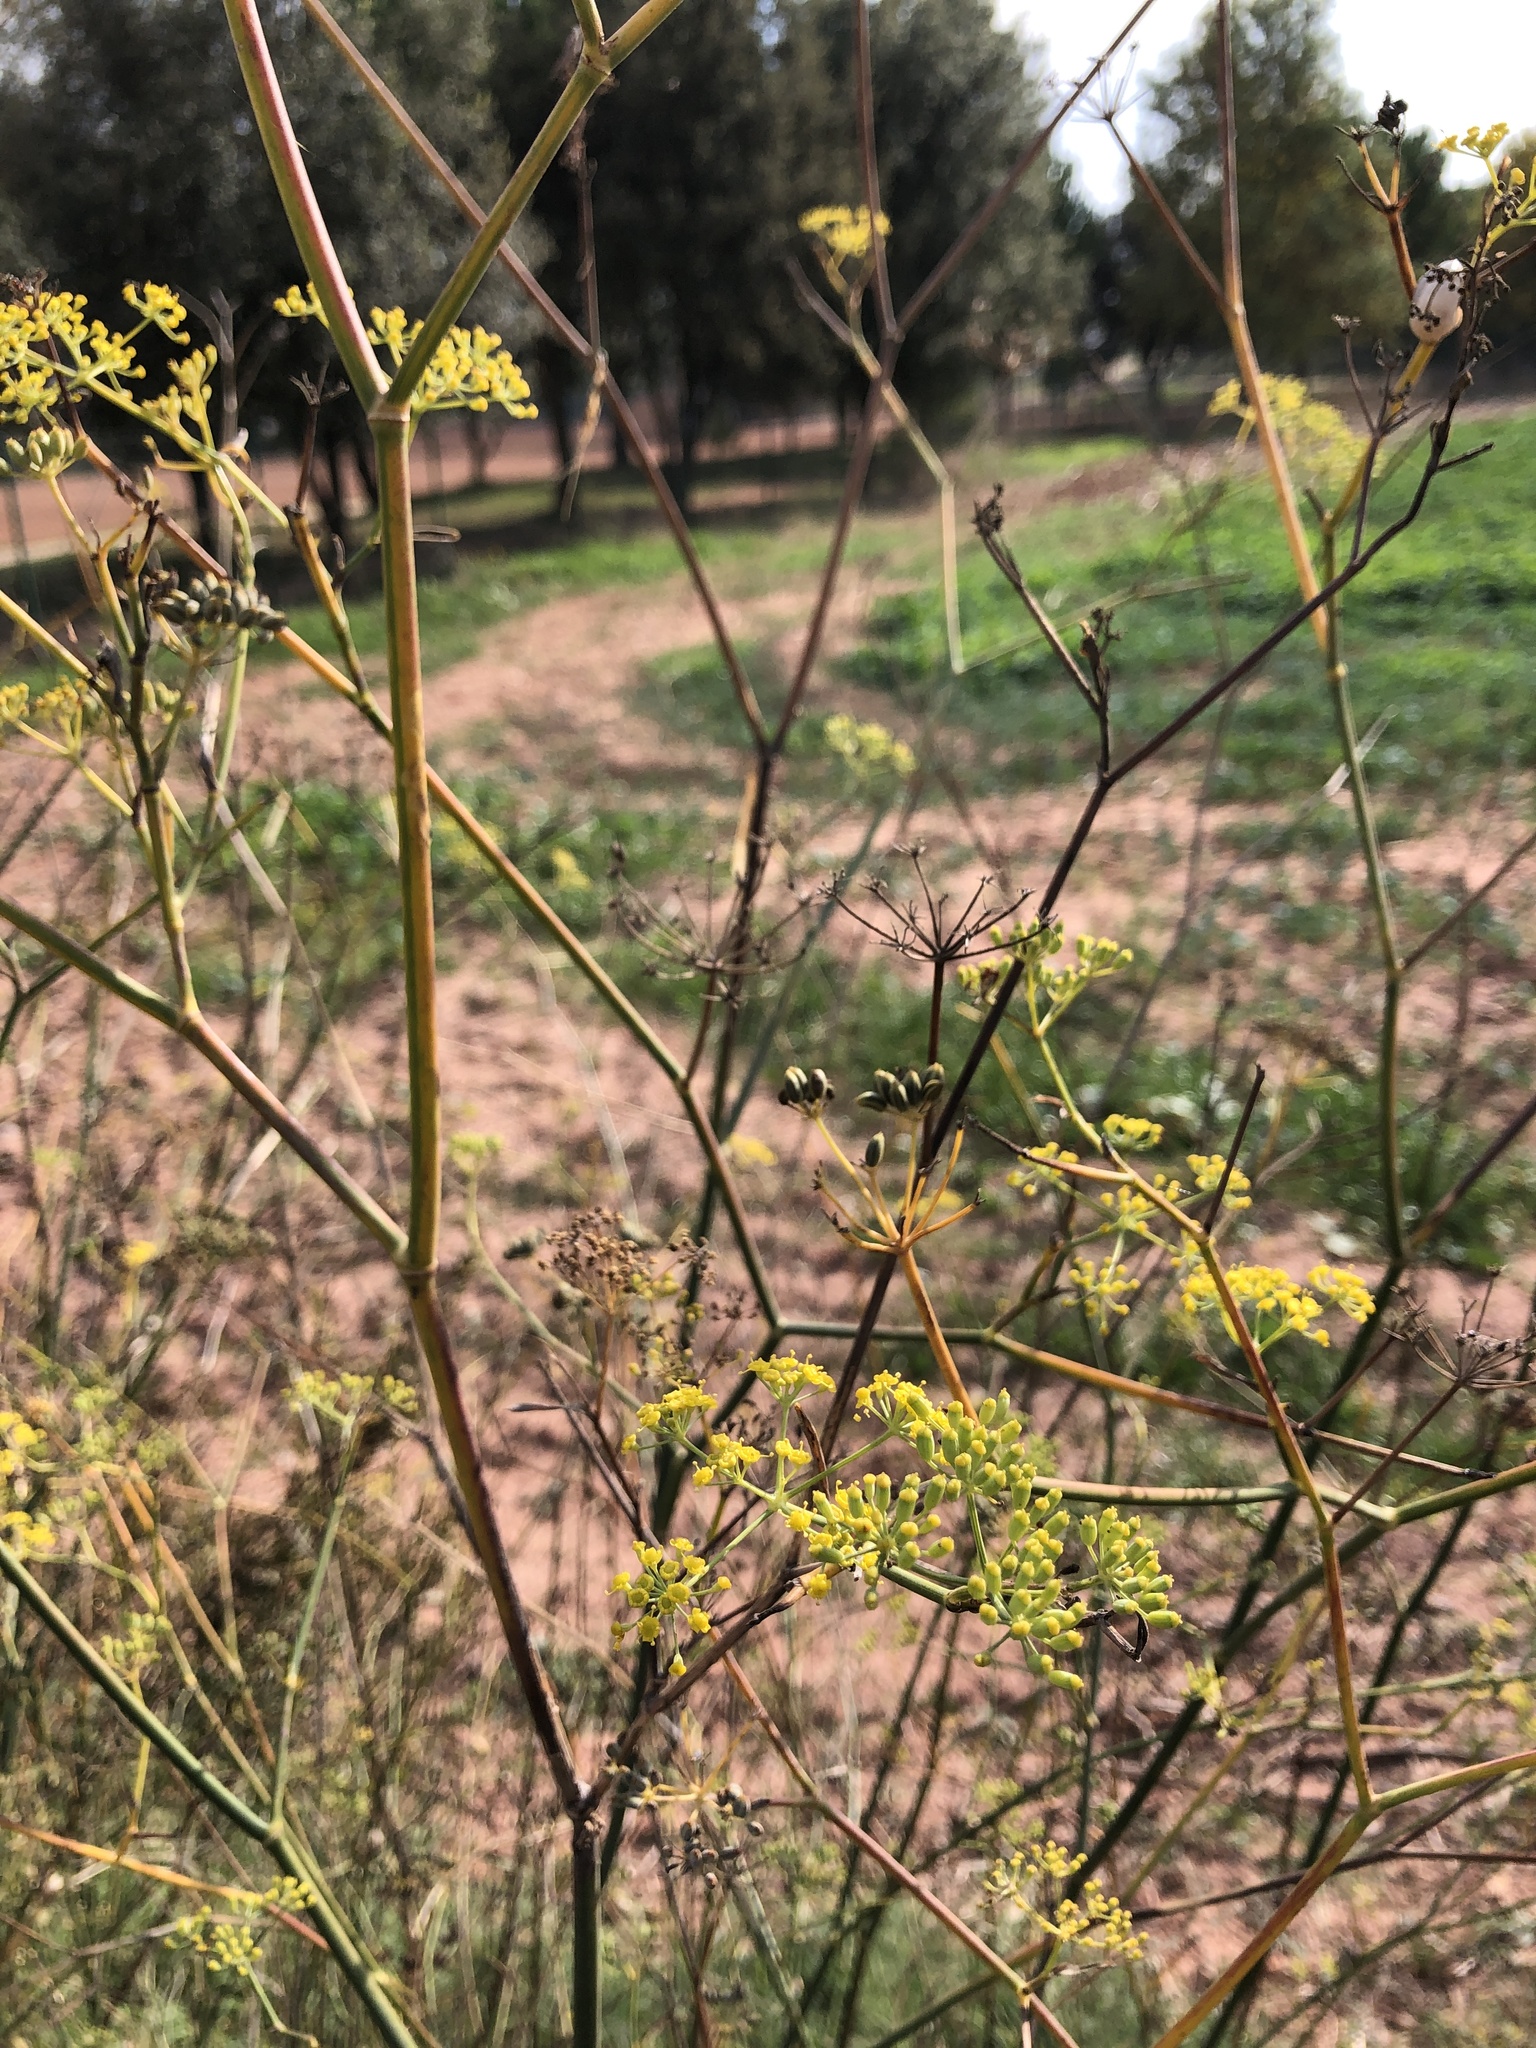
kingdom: Plantae
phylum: Tracheophyta
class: Magnoliopsida
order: Apiales
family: Apiaceae
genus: Foeniculum
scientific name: Foeniculum vulgare
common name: Fennel
